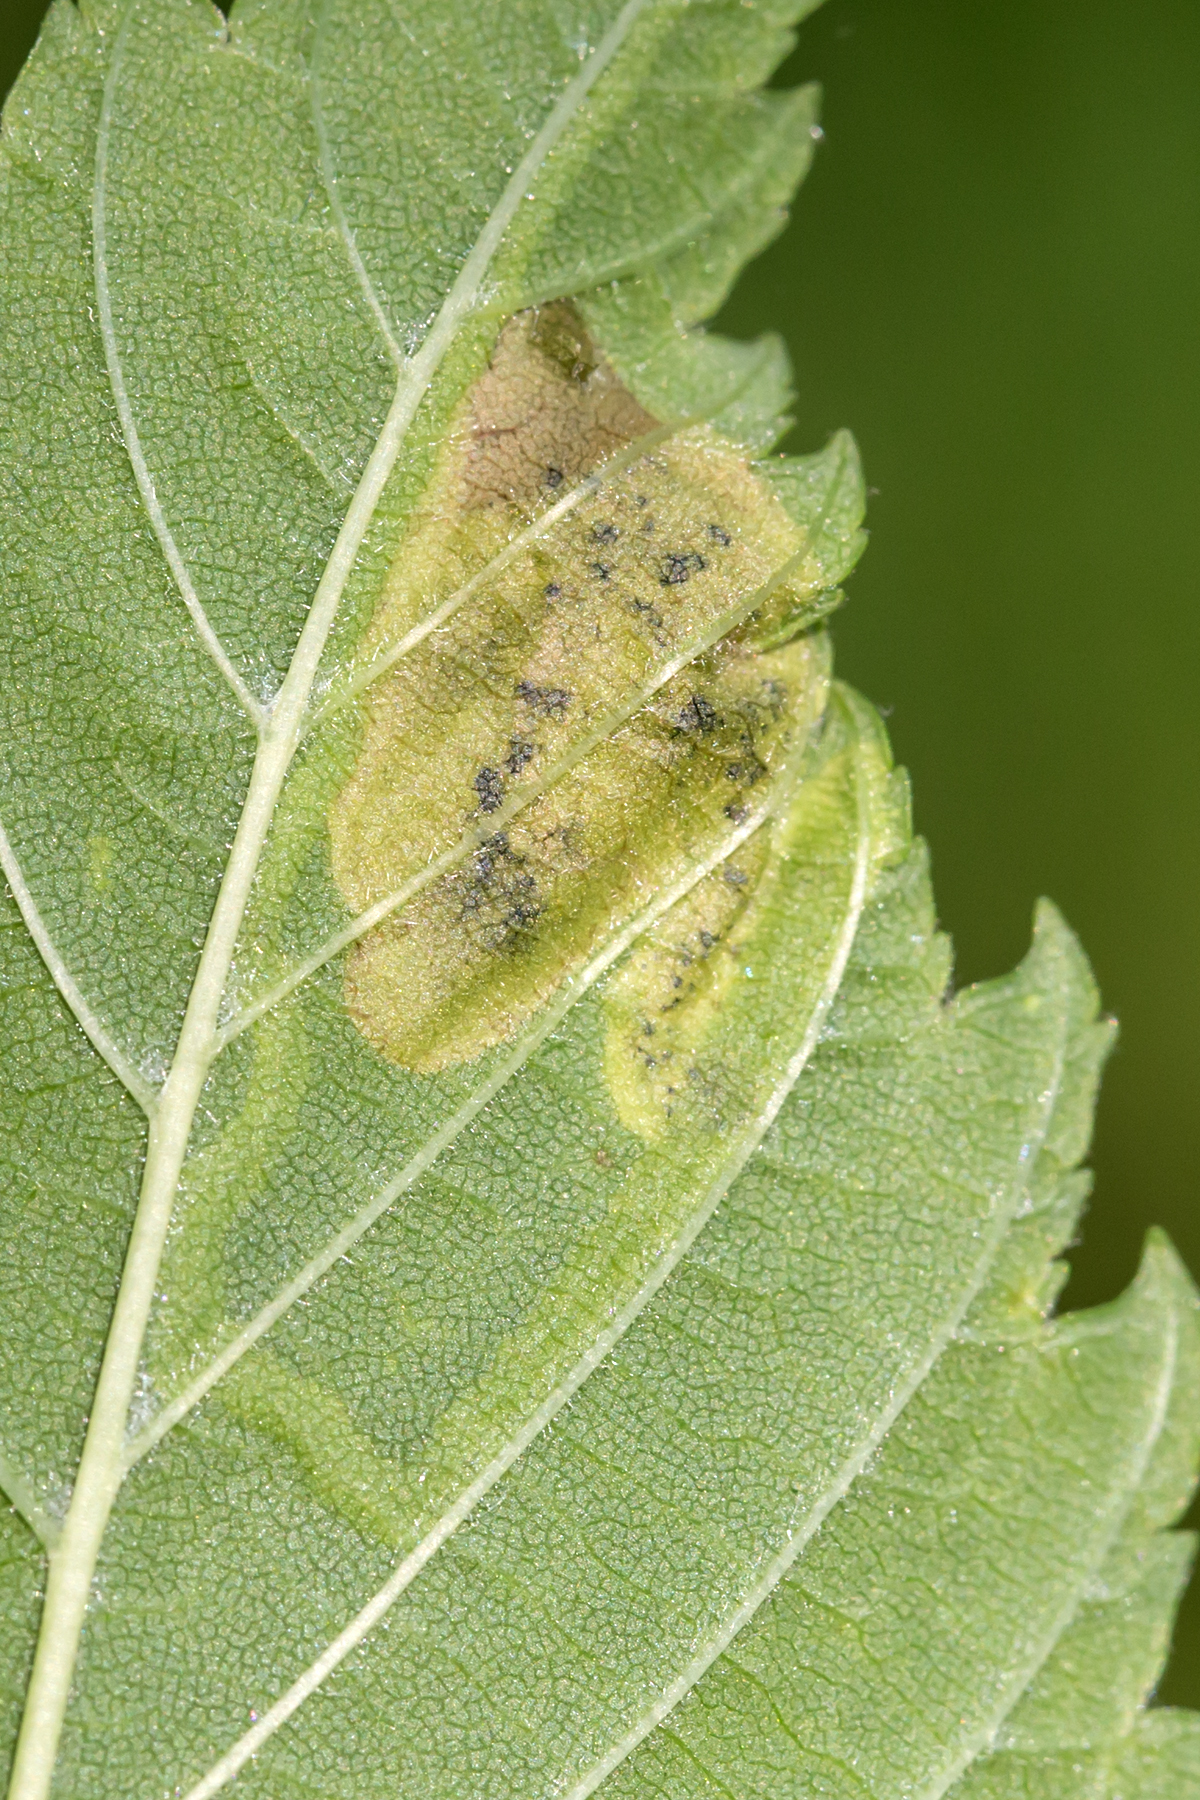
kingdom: Animalia
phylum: Arthropoda
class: Insecta
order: Diptera
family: Agromyzidae
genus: Agromyza
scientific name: Agromyza aristata
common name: Elm agromyzid leafminer
